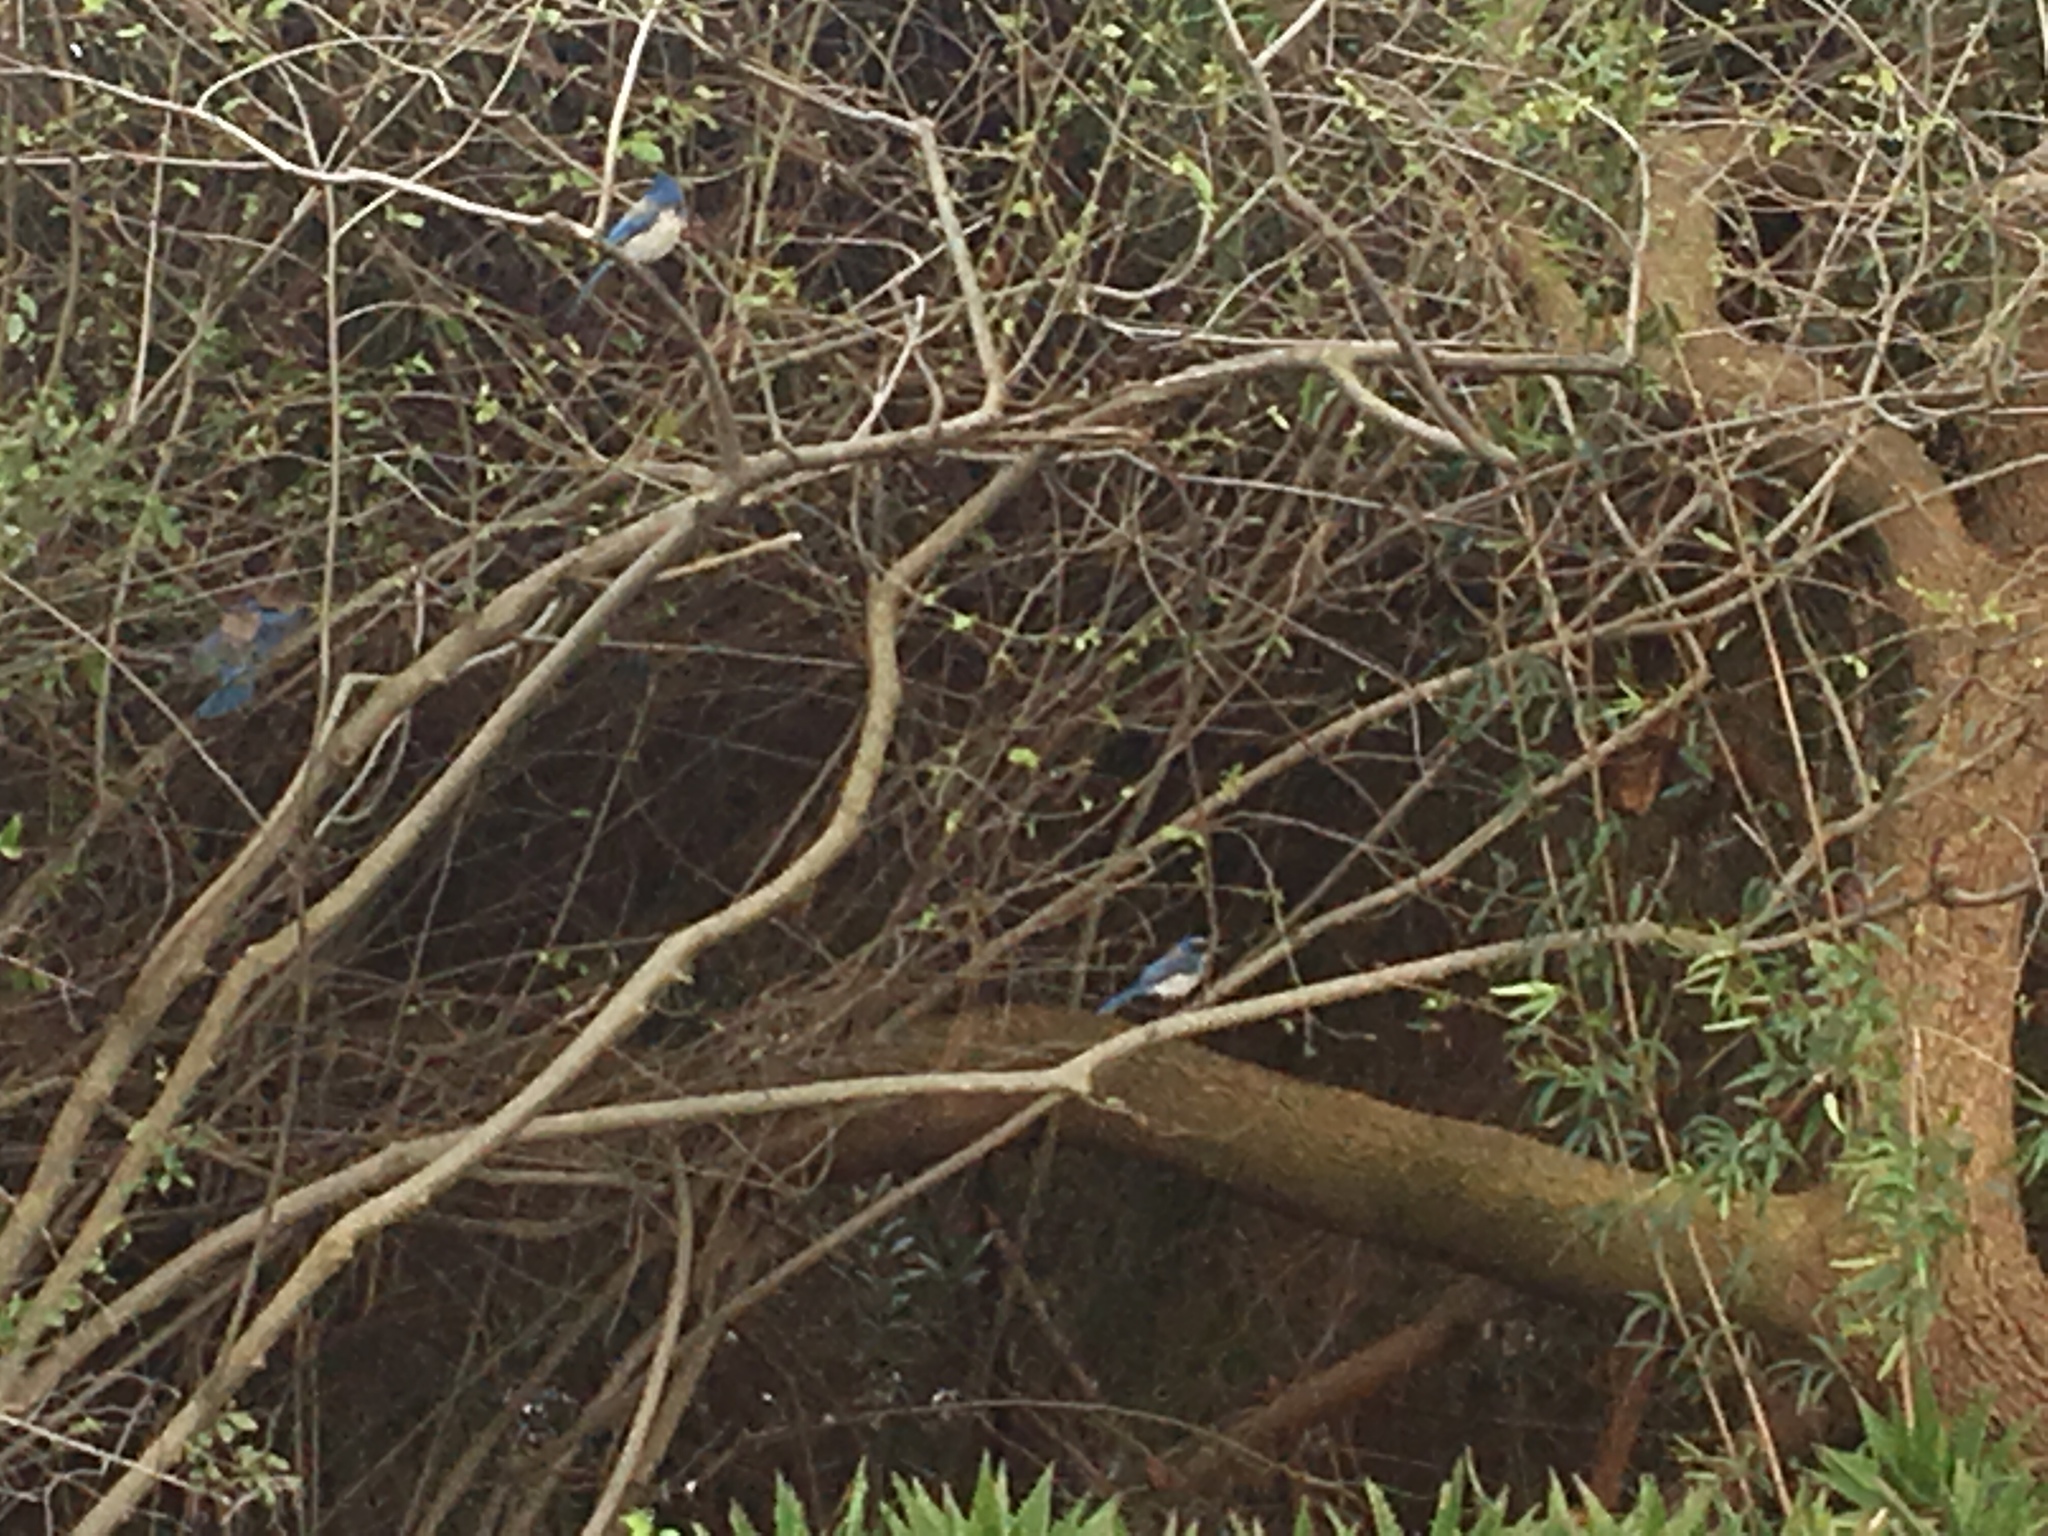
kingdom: Animalia
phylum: Chordata
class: Aves
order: Passeriformes
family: Corvidae
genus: Aphelocoma
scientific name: Aphelocoma californica
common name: California scrub-jay
